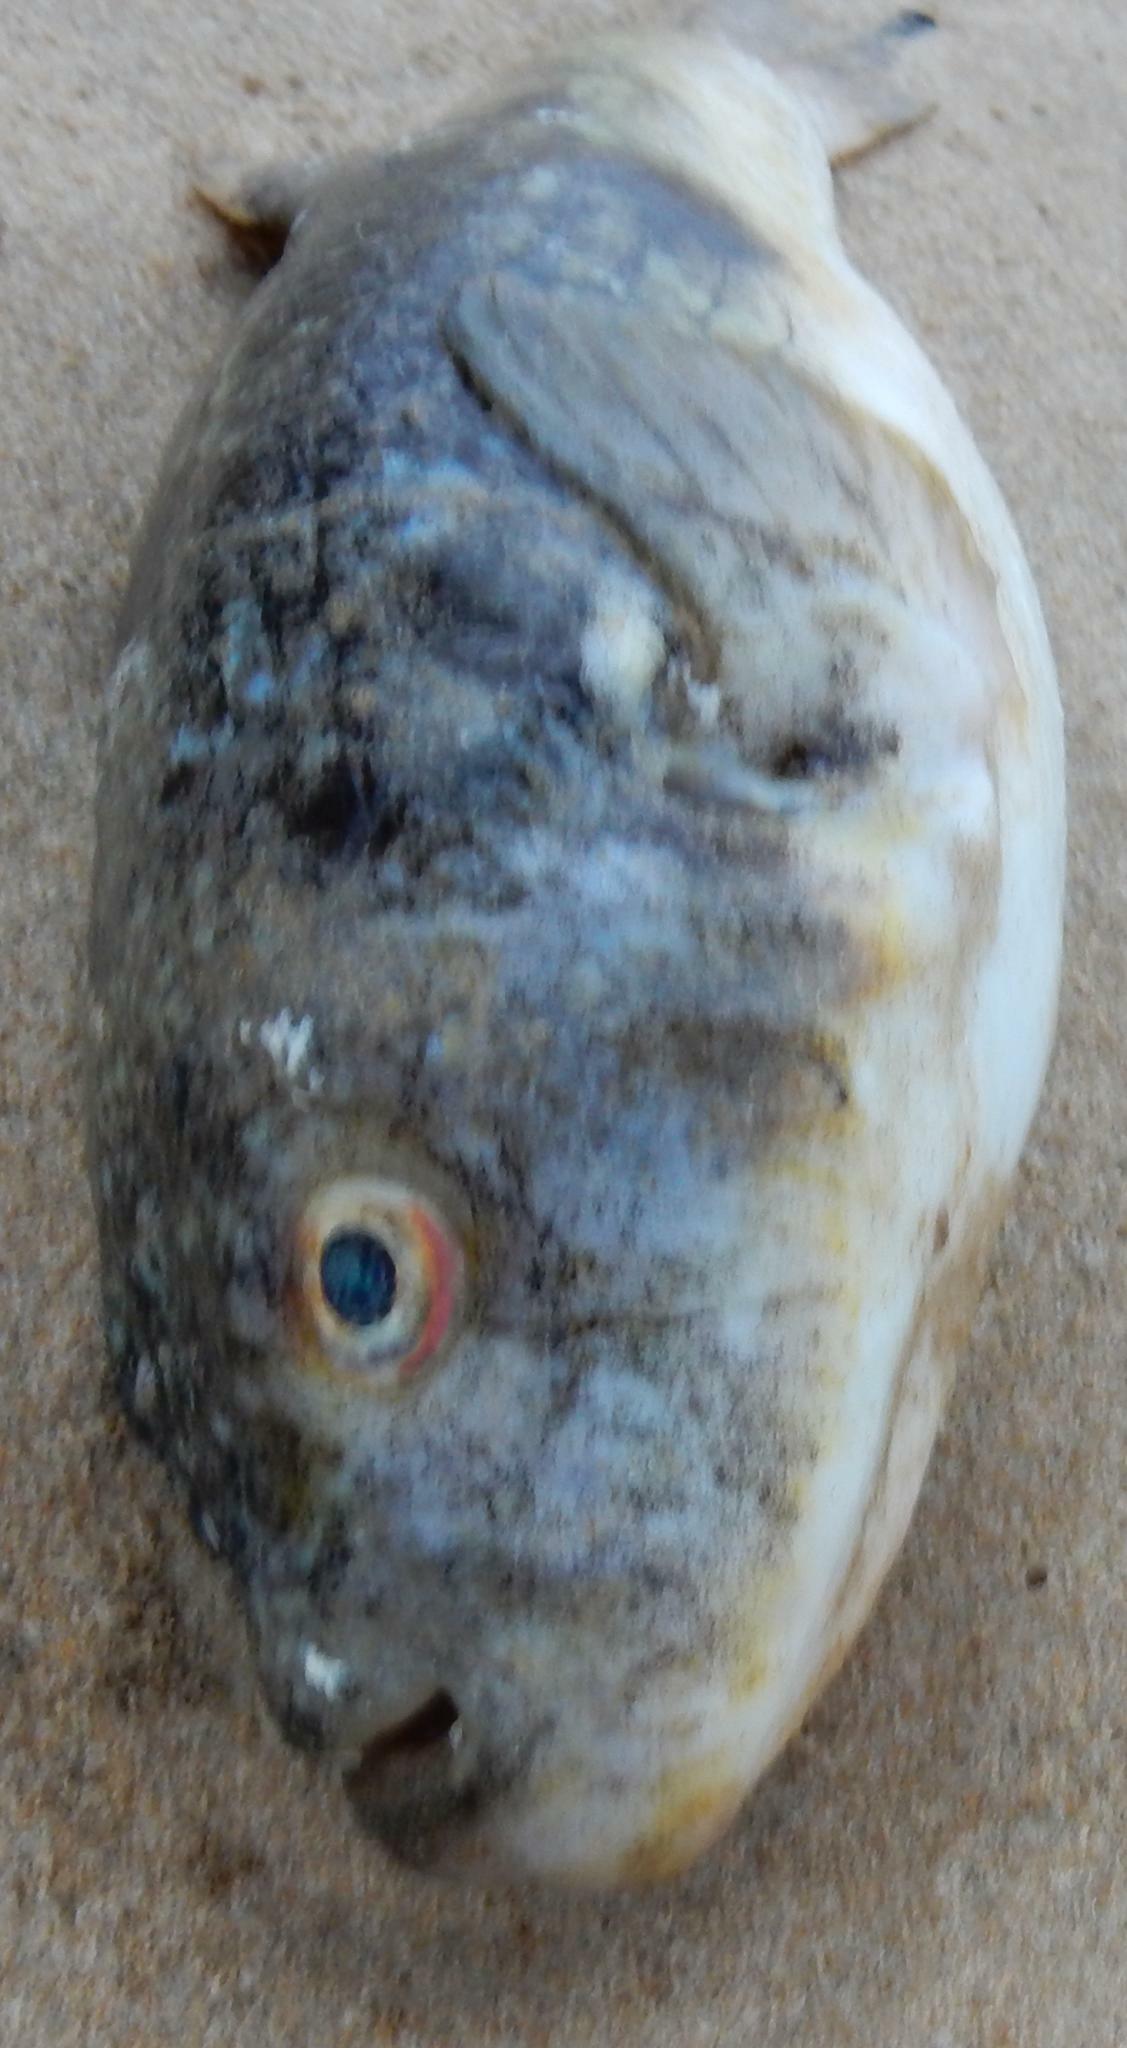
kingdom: Animalia
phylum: Chordata
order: Tetraodontiformes
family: Tetraodontidae
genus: Amblyrhynchote
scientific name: Amblyrhynchote honckenii
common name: Evileye blaasop
